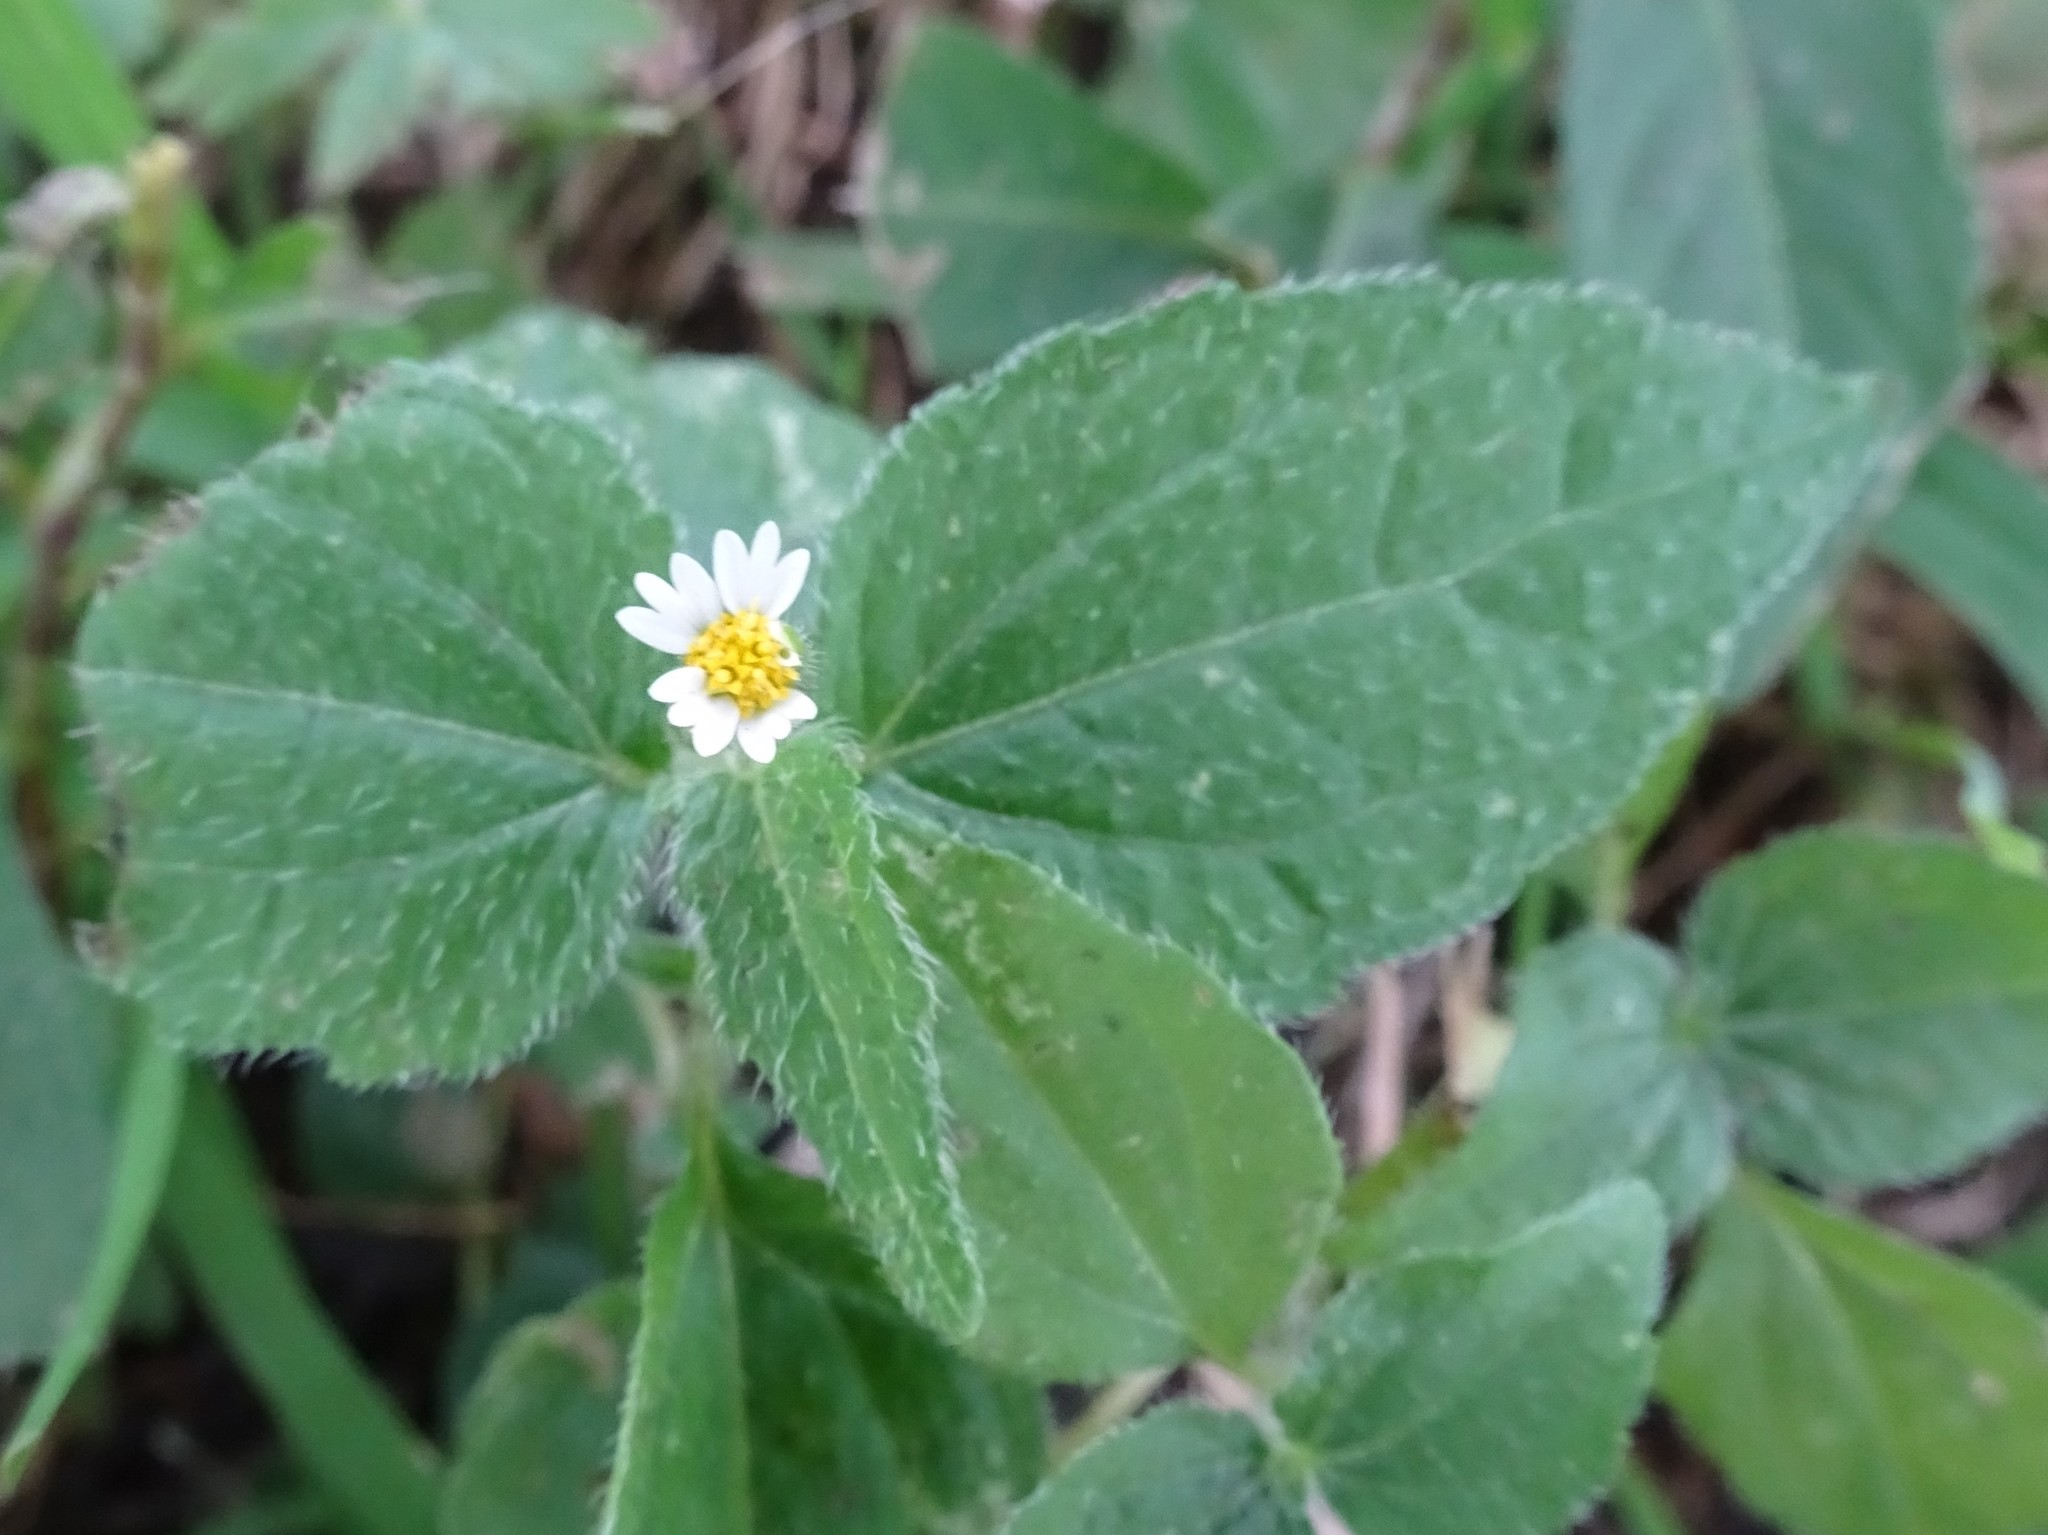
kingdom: Plantae
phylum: Tracheophyta
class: Magnoliopsida
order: Asterales
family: Asteraceae
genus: Galinsoga
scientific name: Galinsoga quadriradiata
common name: Shaggy soldier
